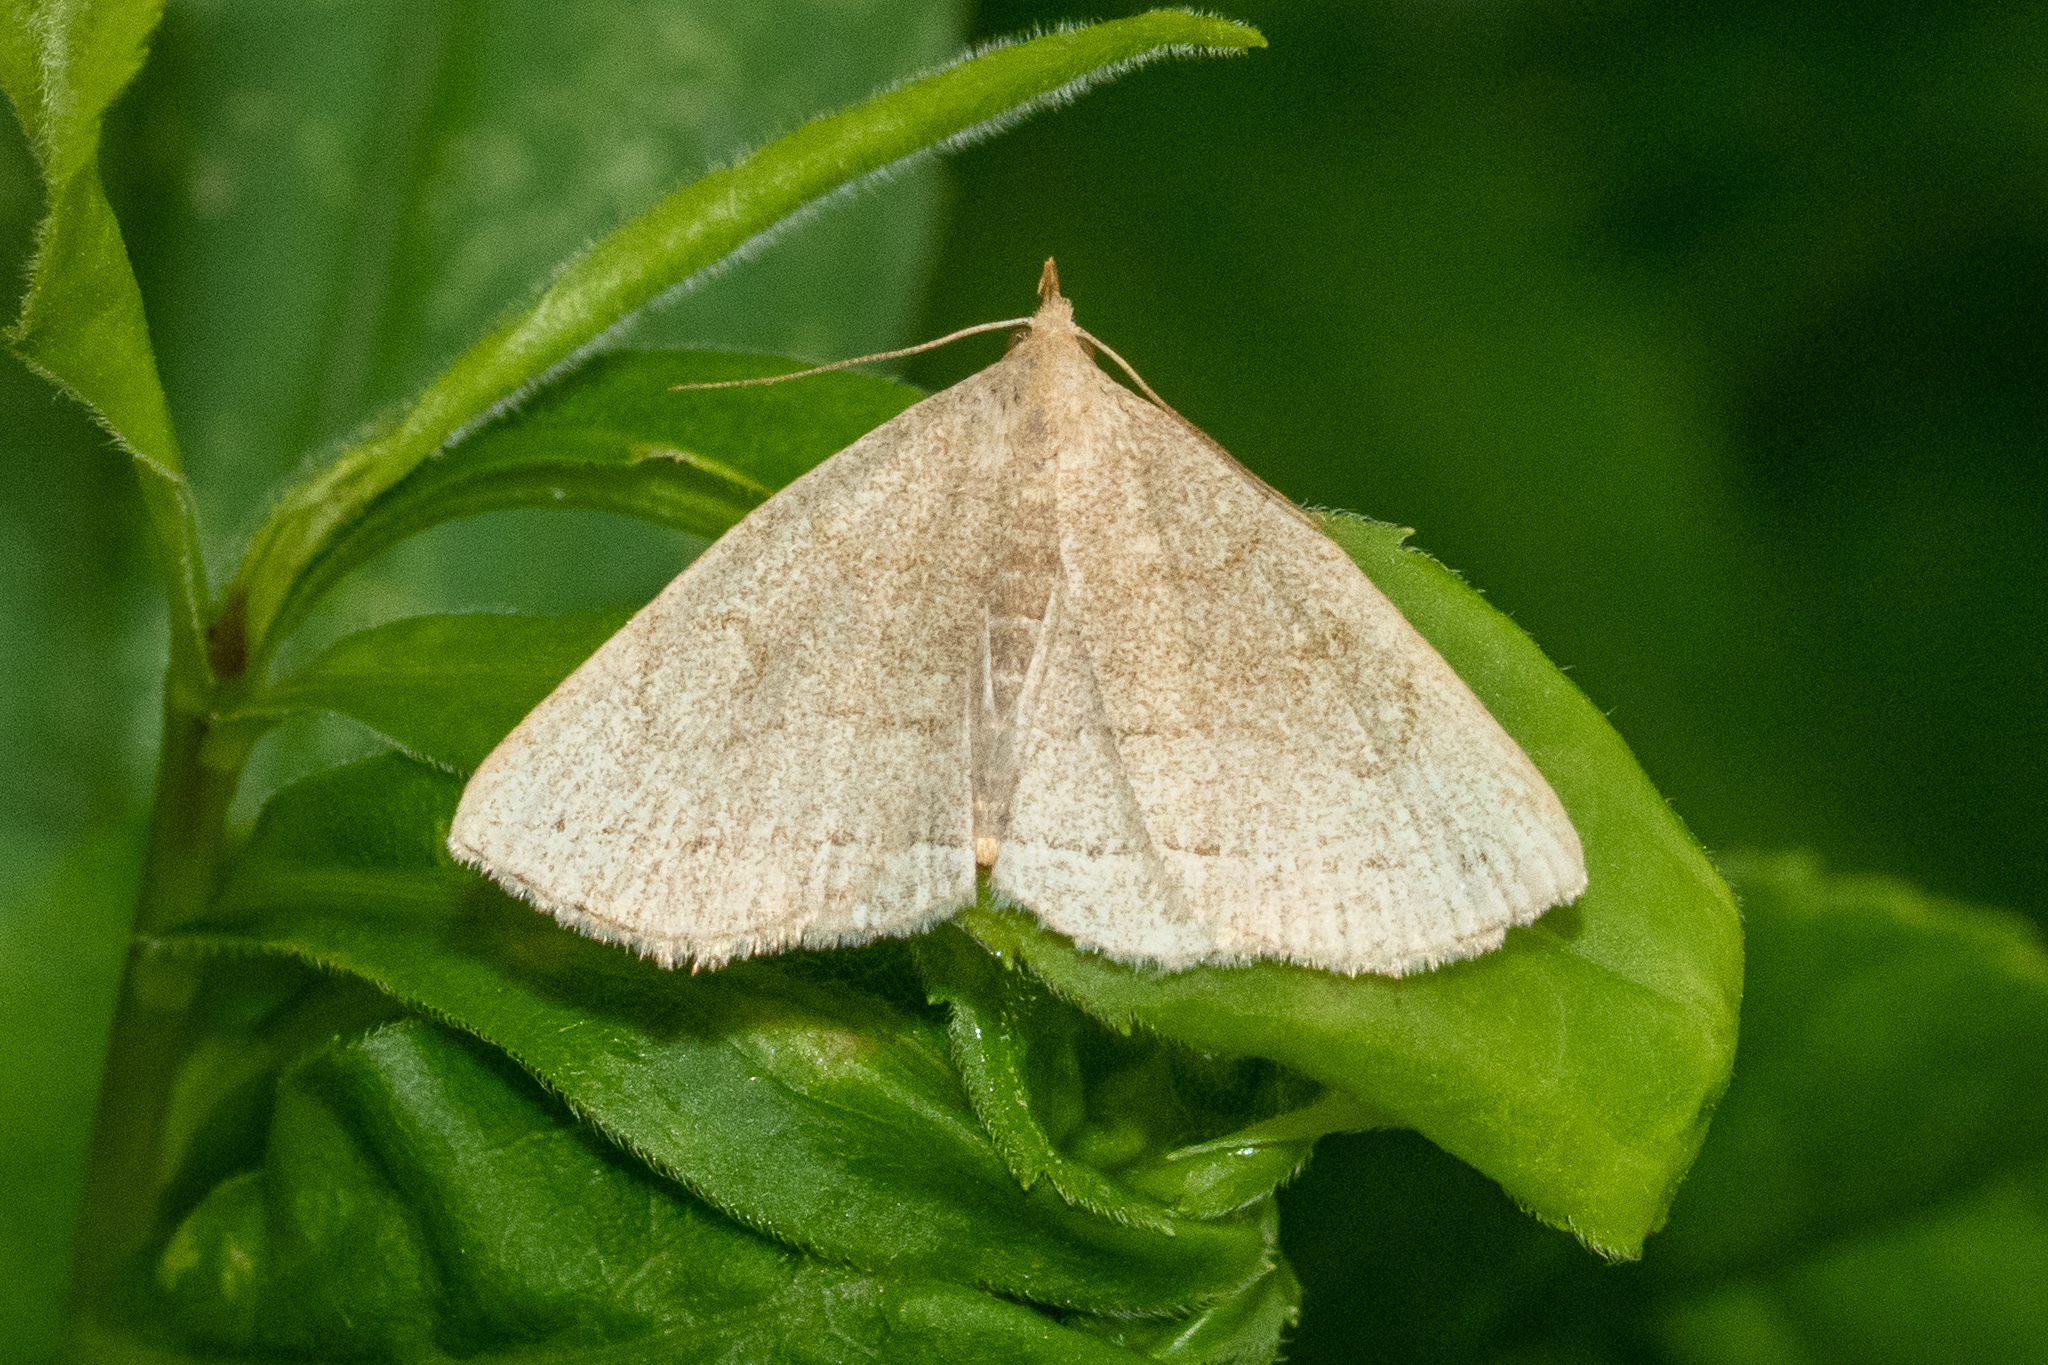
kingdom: Animalia
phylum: Arthropoda
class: Insecta
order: Lepidoptera
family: Erebidae
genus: Zanclognatha
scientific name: Zanclognatha pedipilalis
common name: Grayish fan-foot
